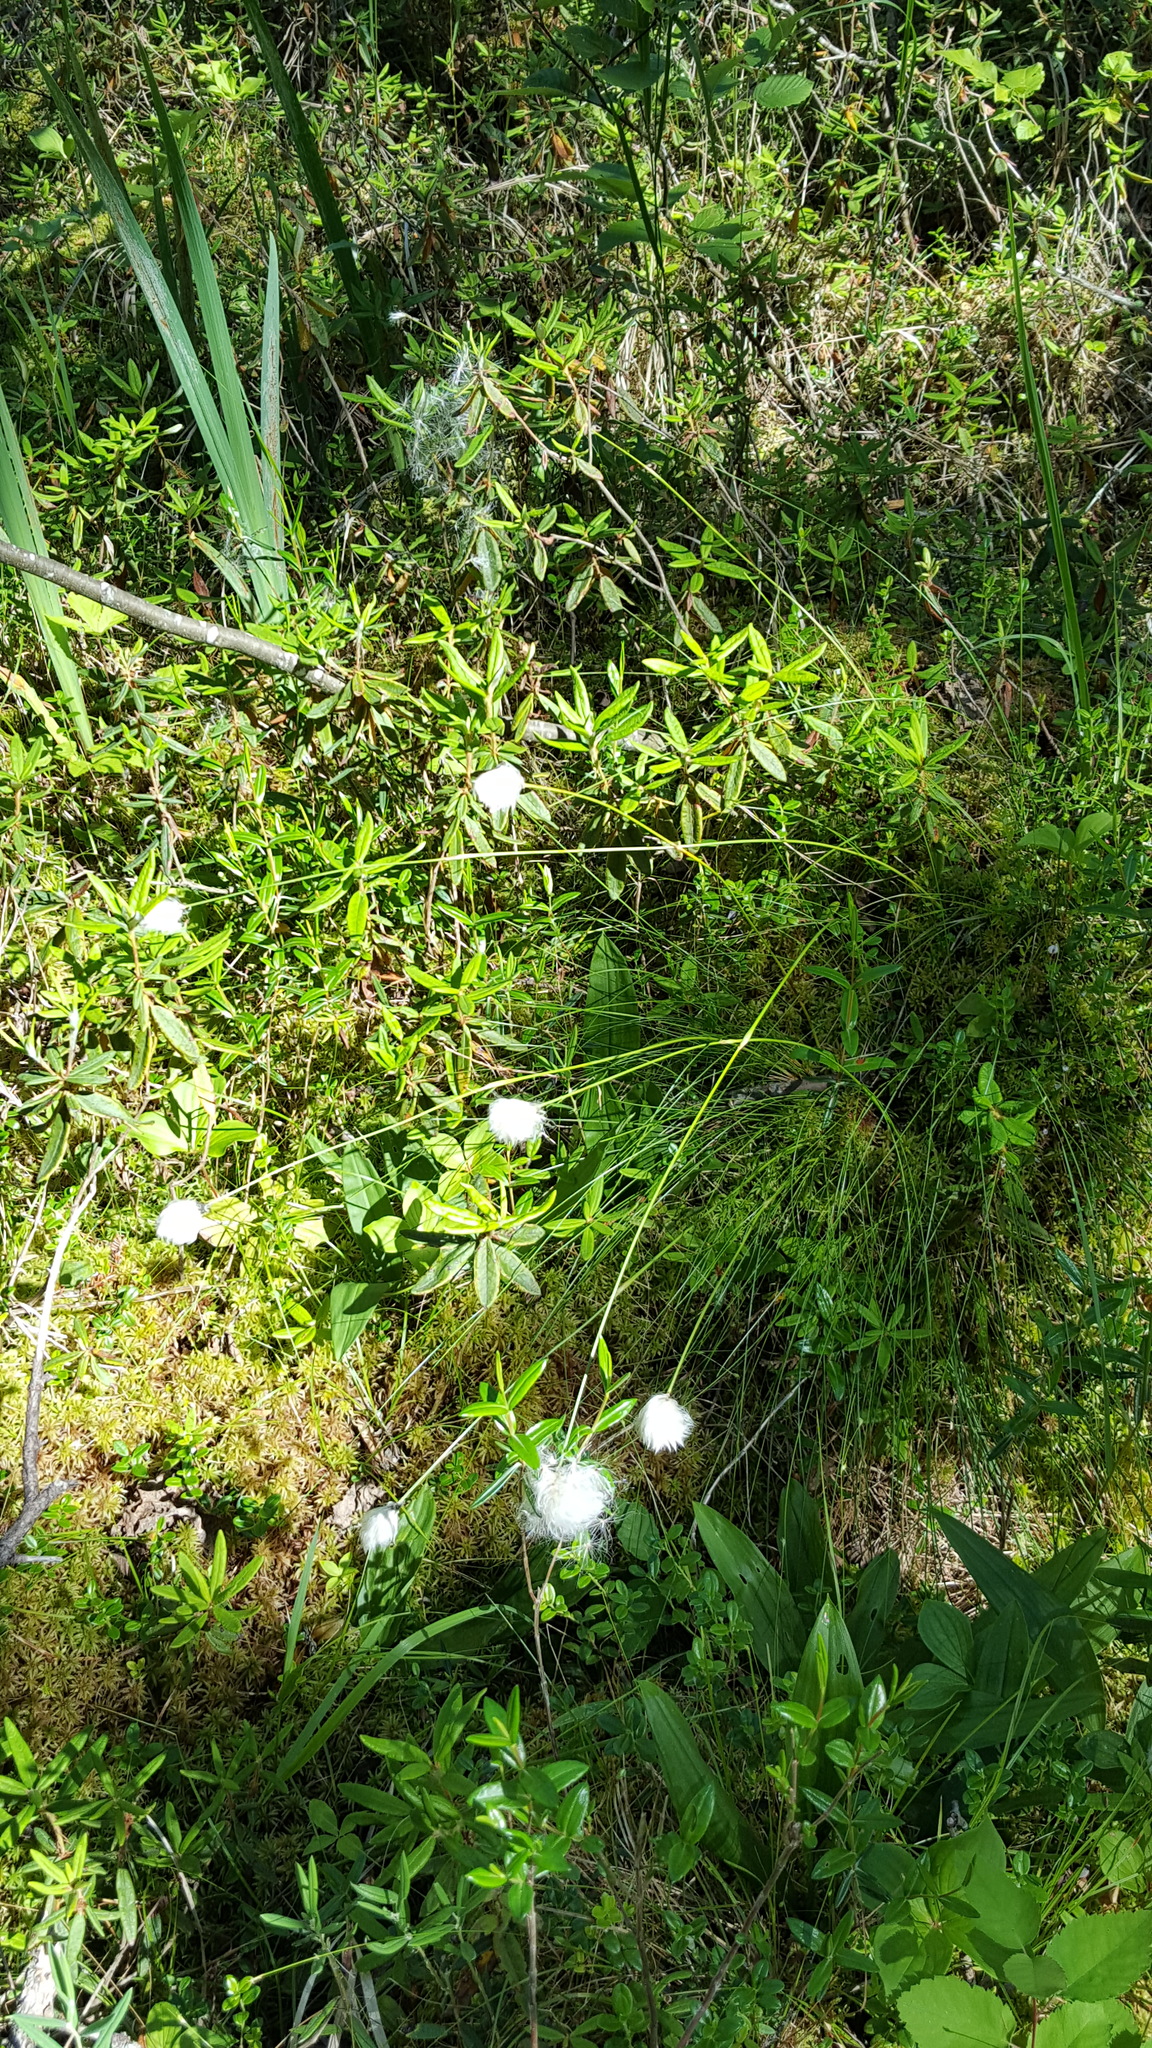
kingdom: Plantae
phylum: Tracheophyta
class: Liliopsida
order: Poales
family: Cyperaceae
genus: Eriophorum
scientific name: Eriophorum vaginatum
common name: Hare's-tail cottongrass
